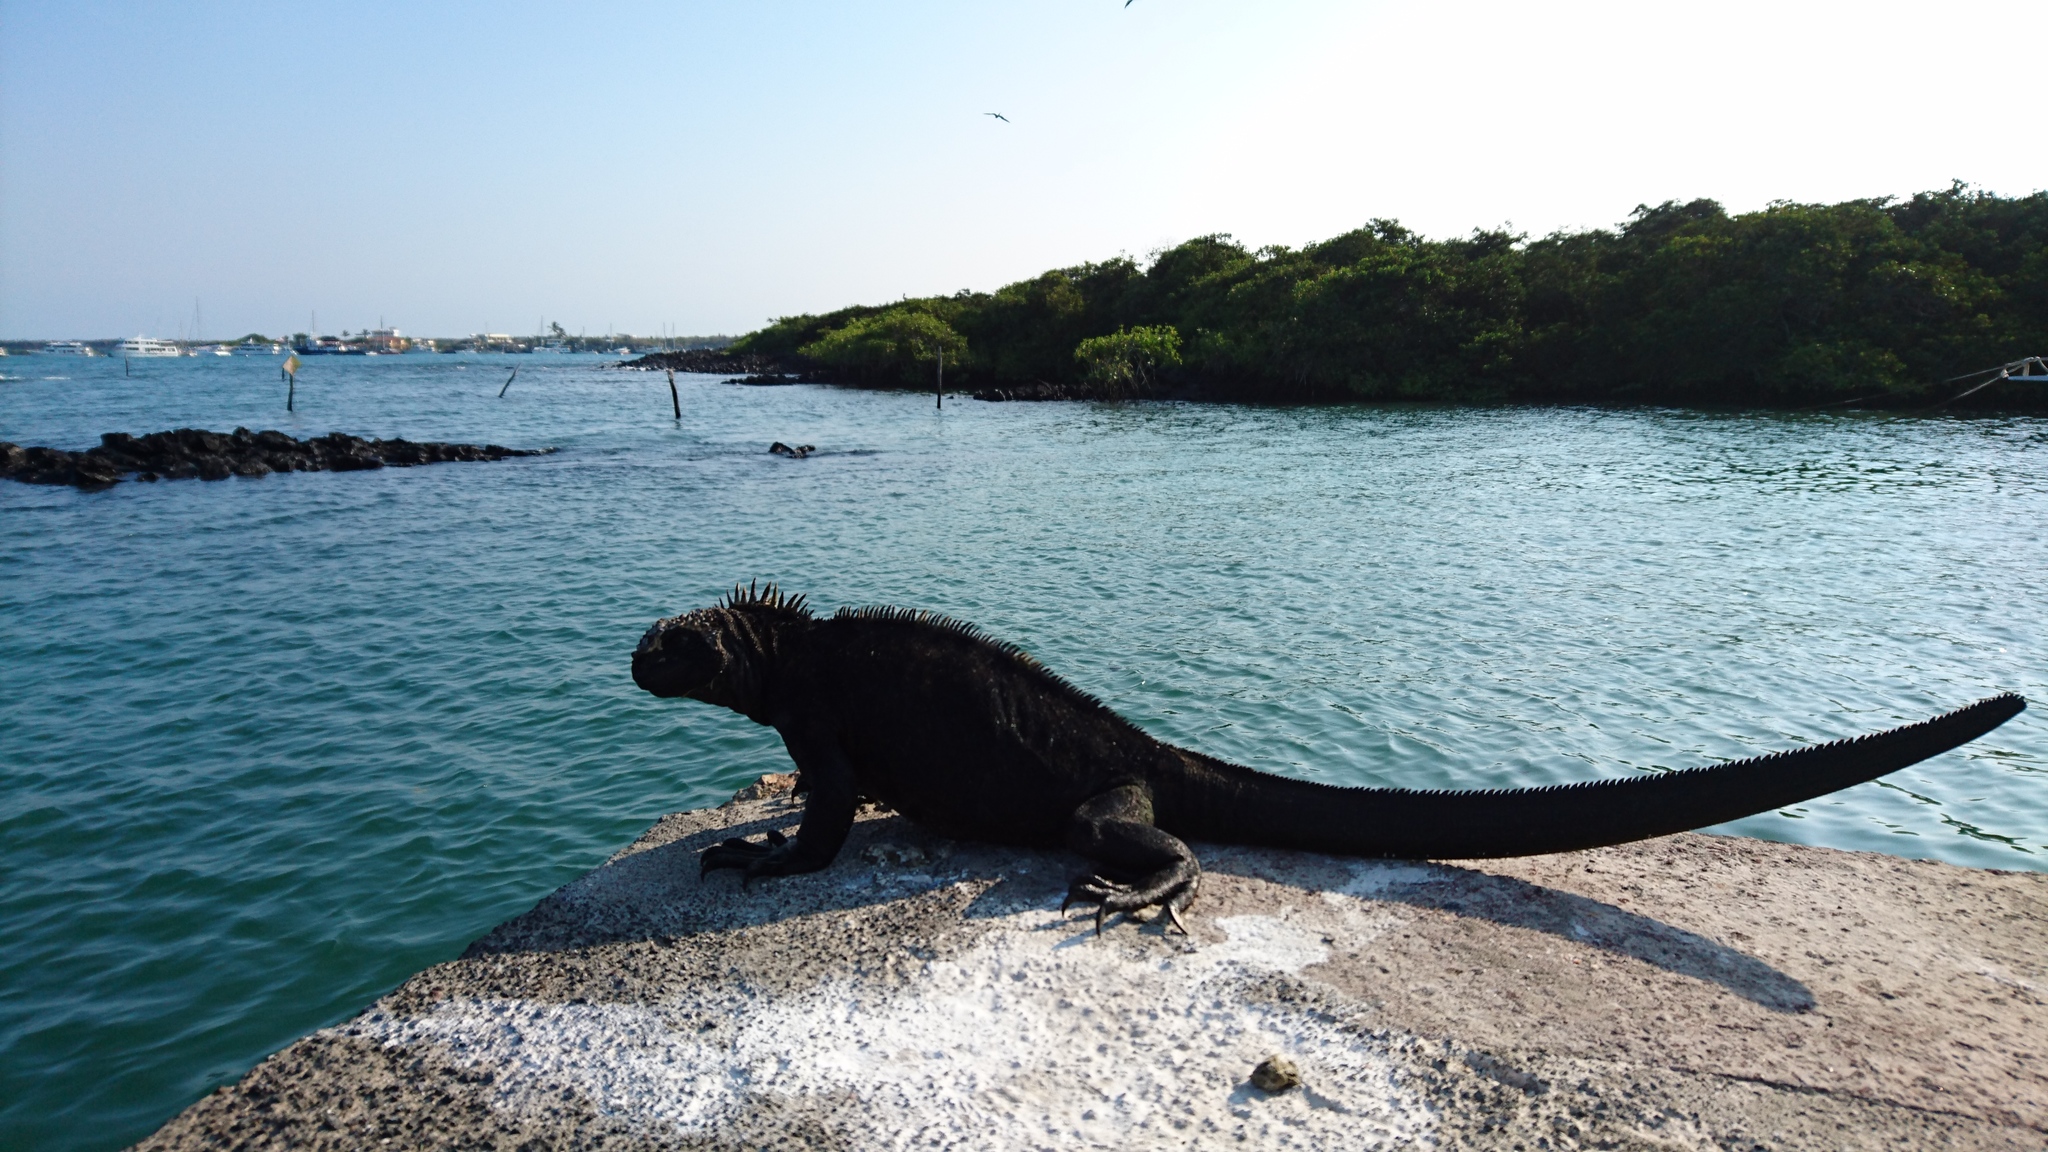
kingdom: Animalia
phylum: Chordata
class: Squamata
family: Iguanidae
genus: Amblyrhynchus
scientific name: Amblyrhynchus cristatus
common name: Marine iguana
